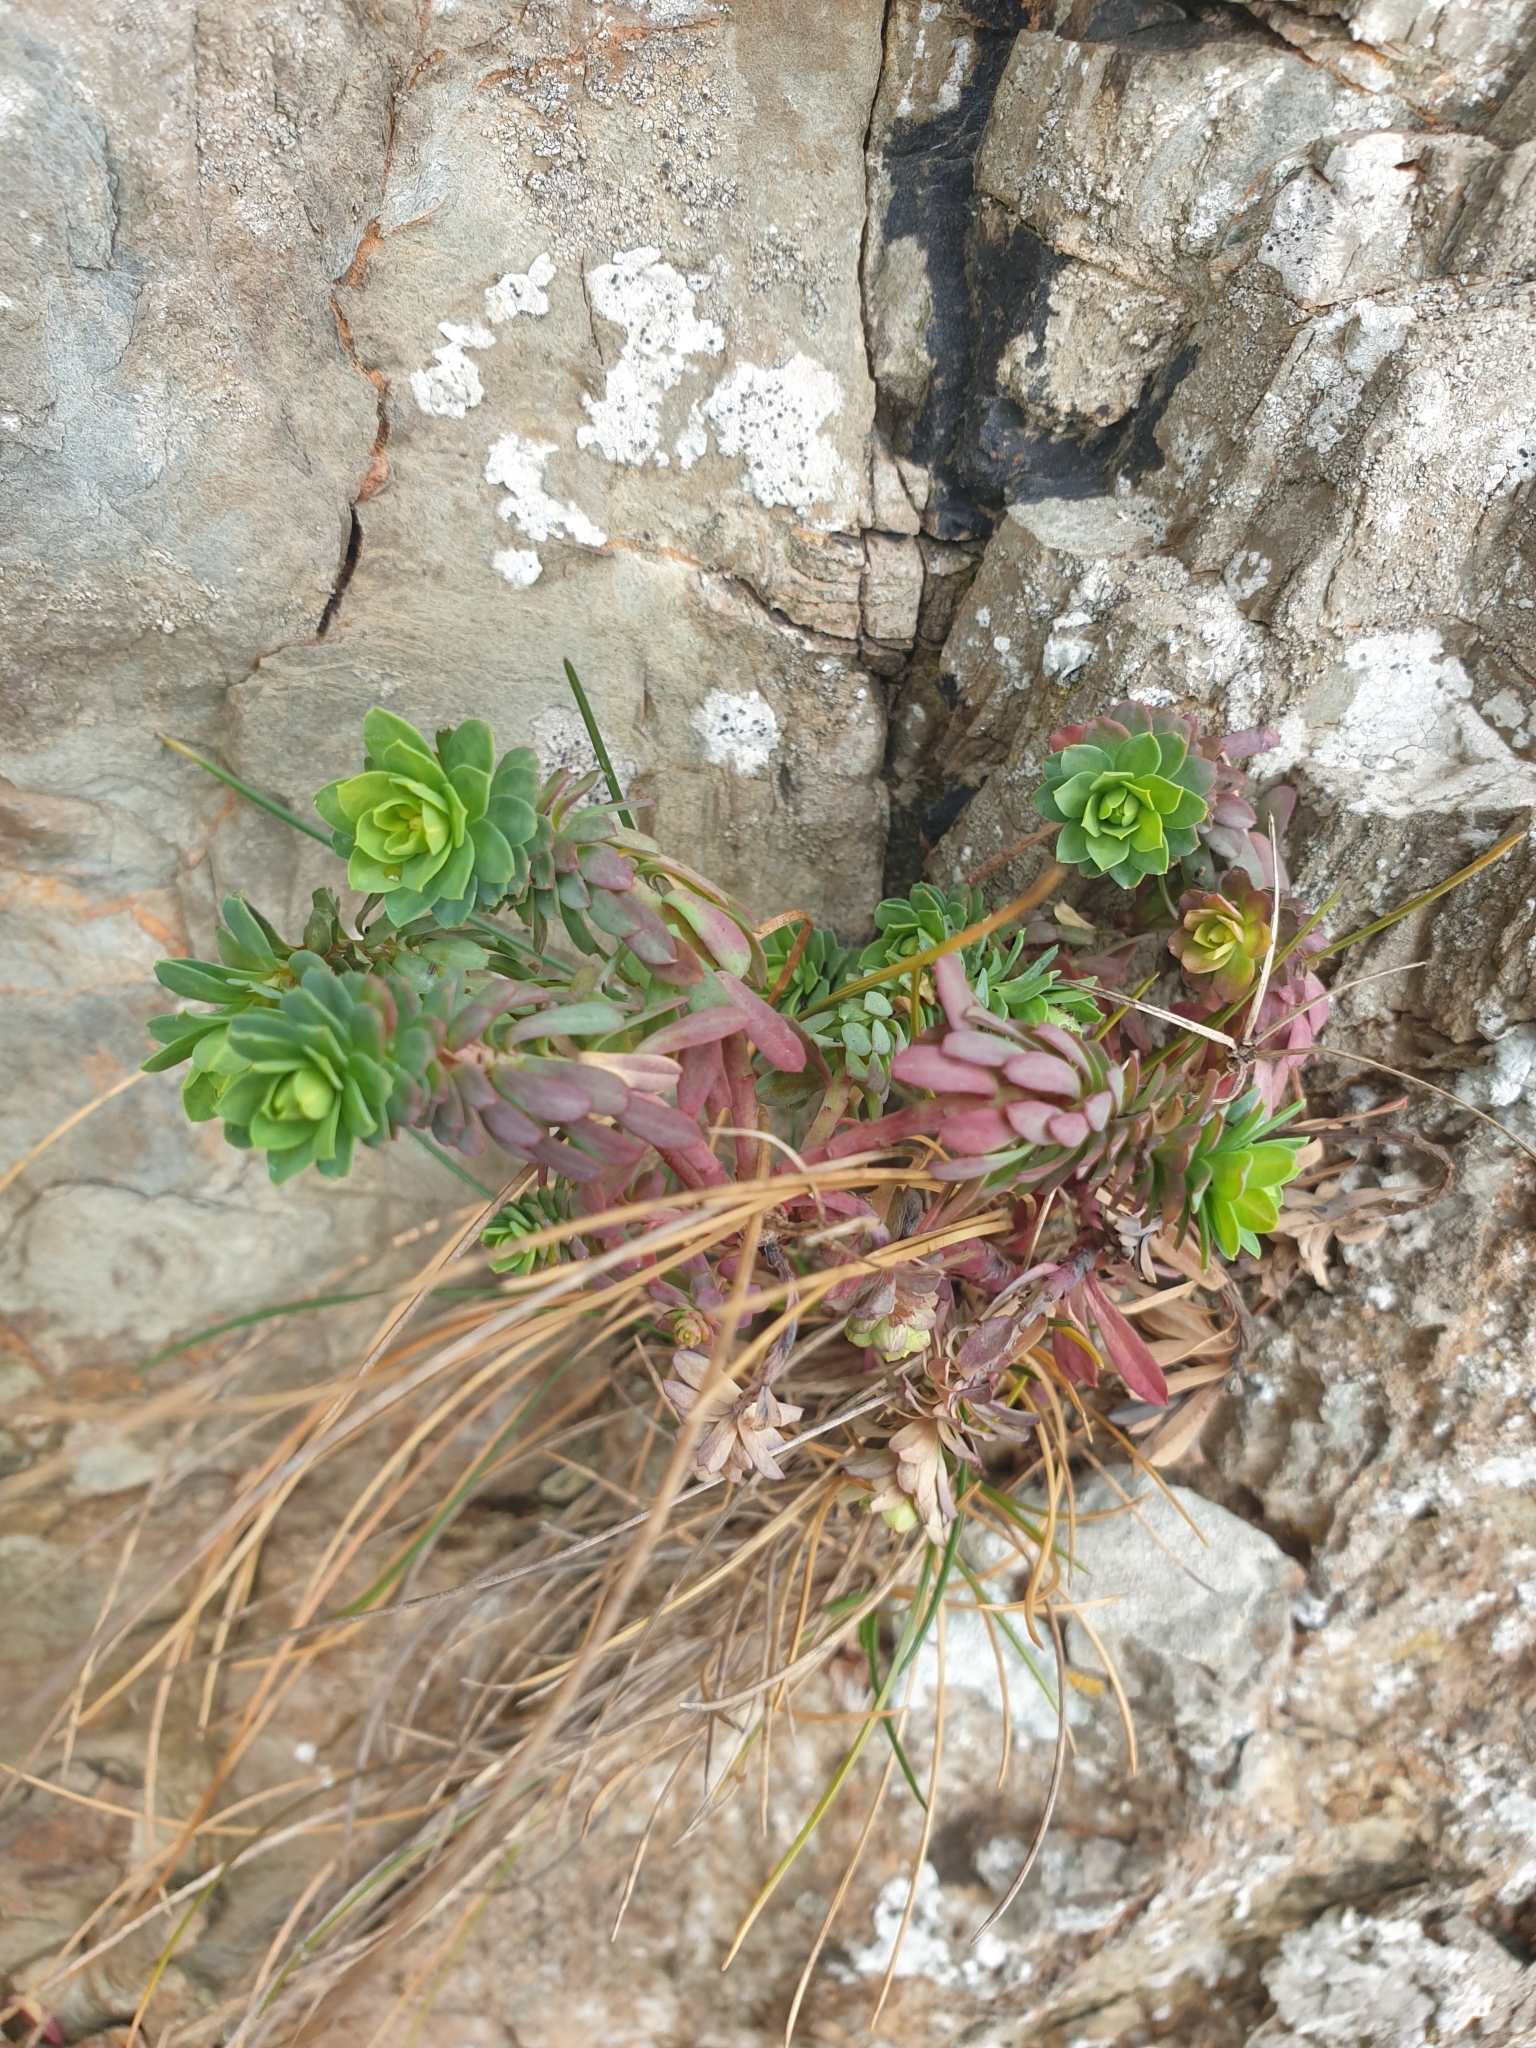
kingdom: Plantae
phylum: Tracheophyta
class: Magnoliopsida
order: Malpighiales
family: Euphorbiaceae
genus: Euphorbia
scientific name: Euphorbia portlandica
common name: Portland spurge
